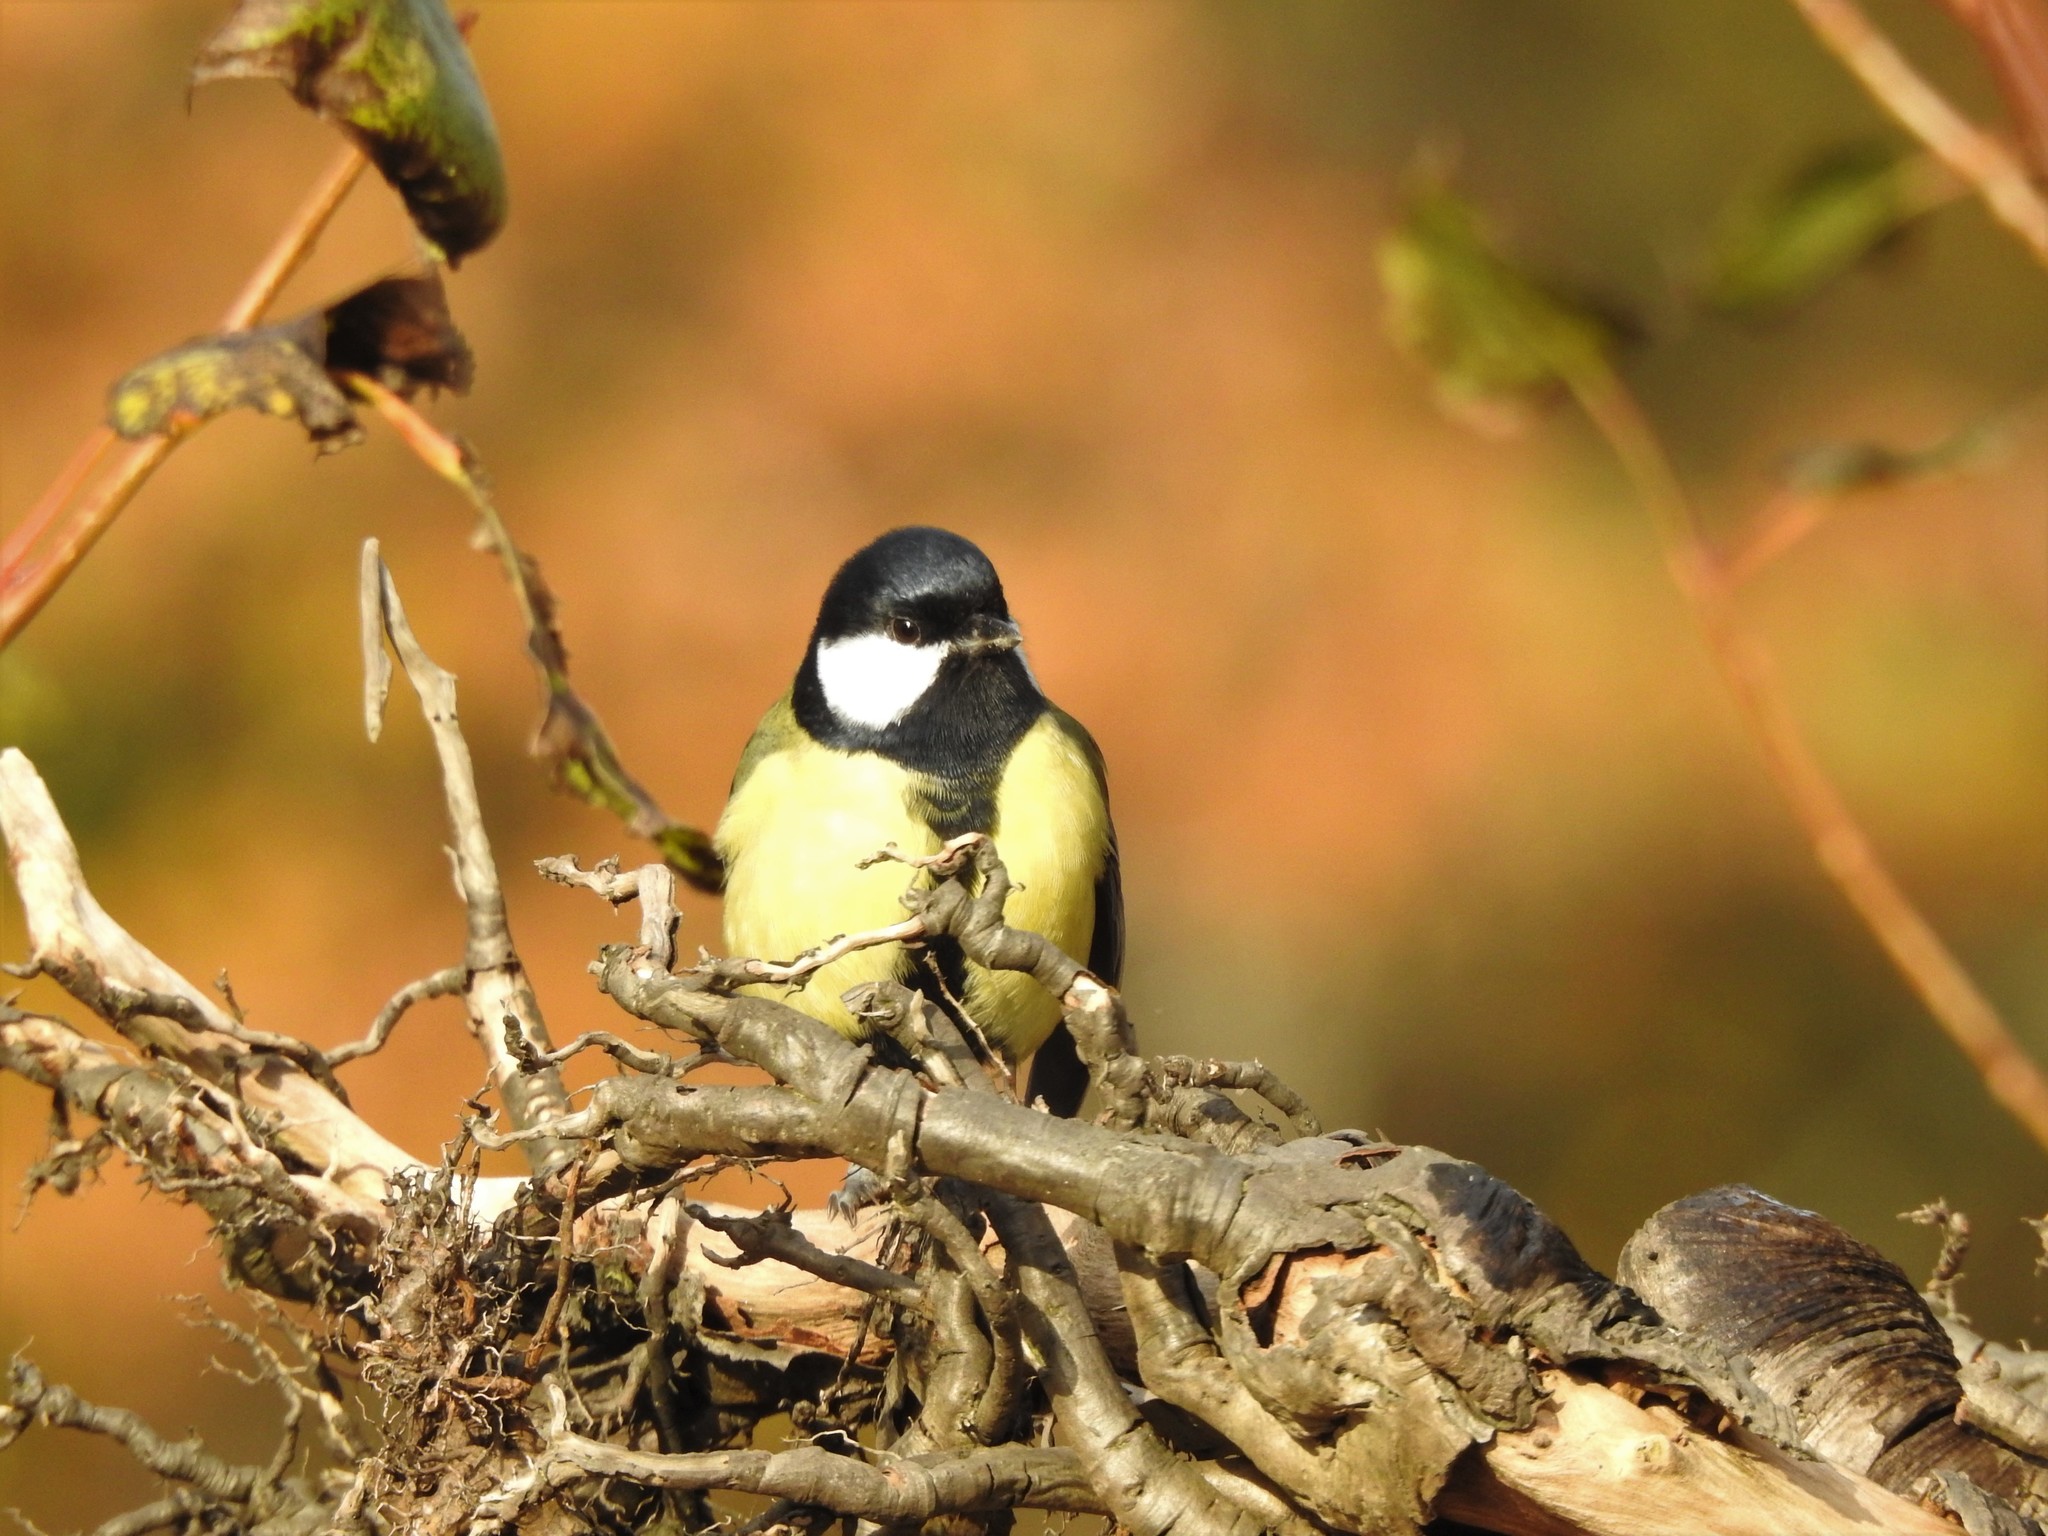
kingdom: Animalia
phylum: Chordata
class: Aves
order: Passeriformes
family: Paridae
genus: Parus
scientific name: Parus major
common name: Great tit
